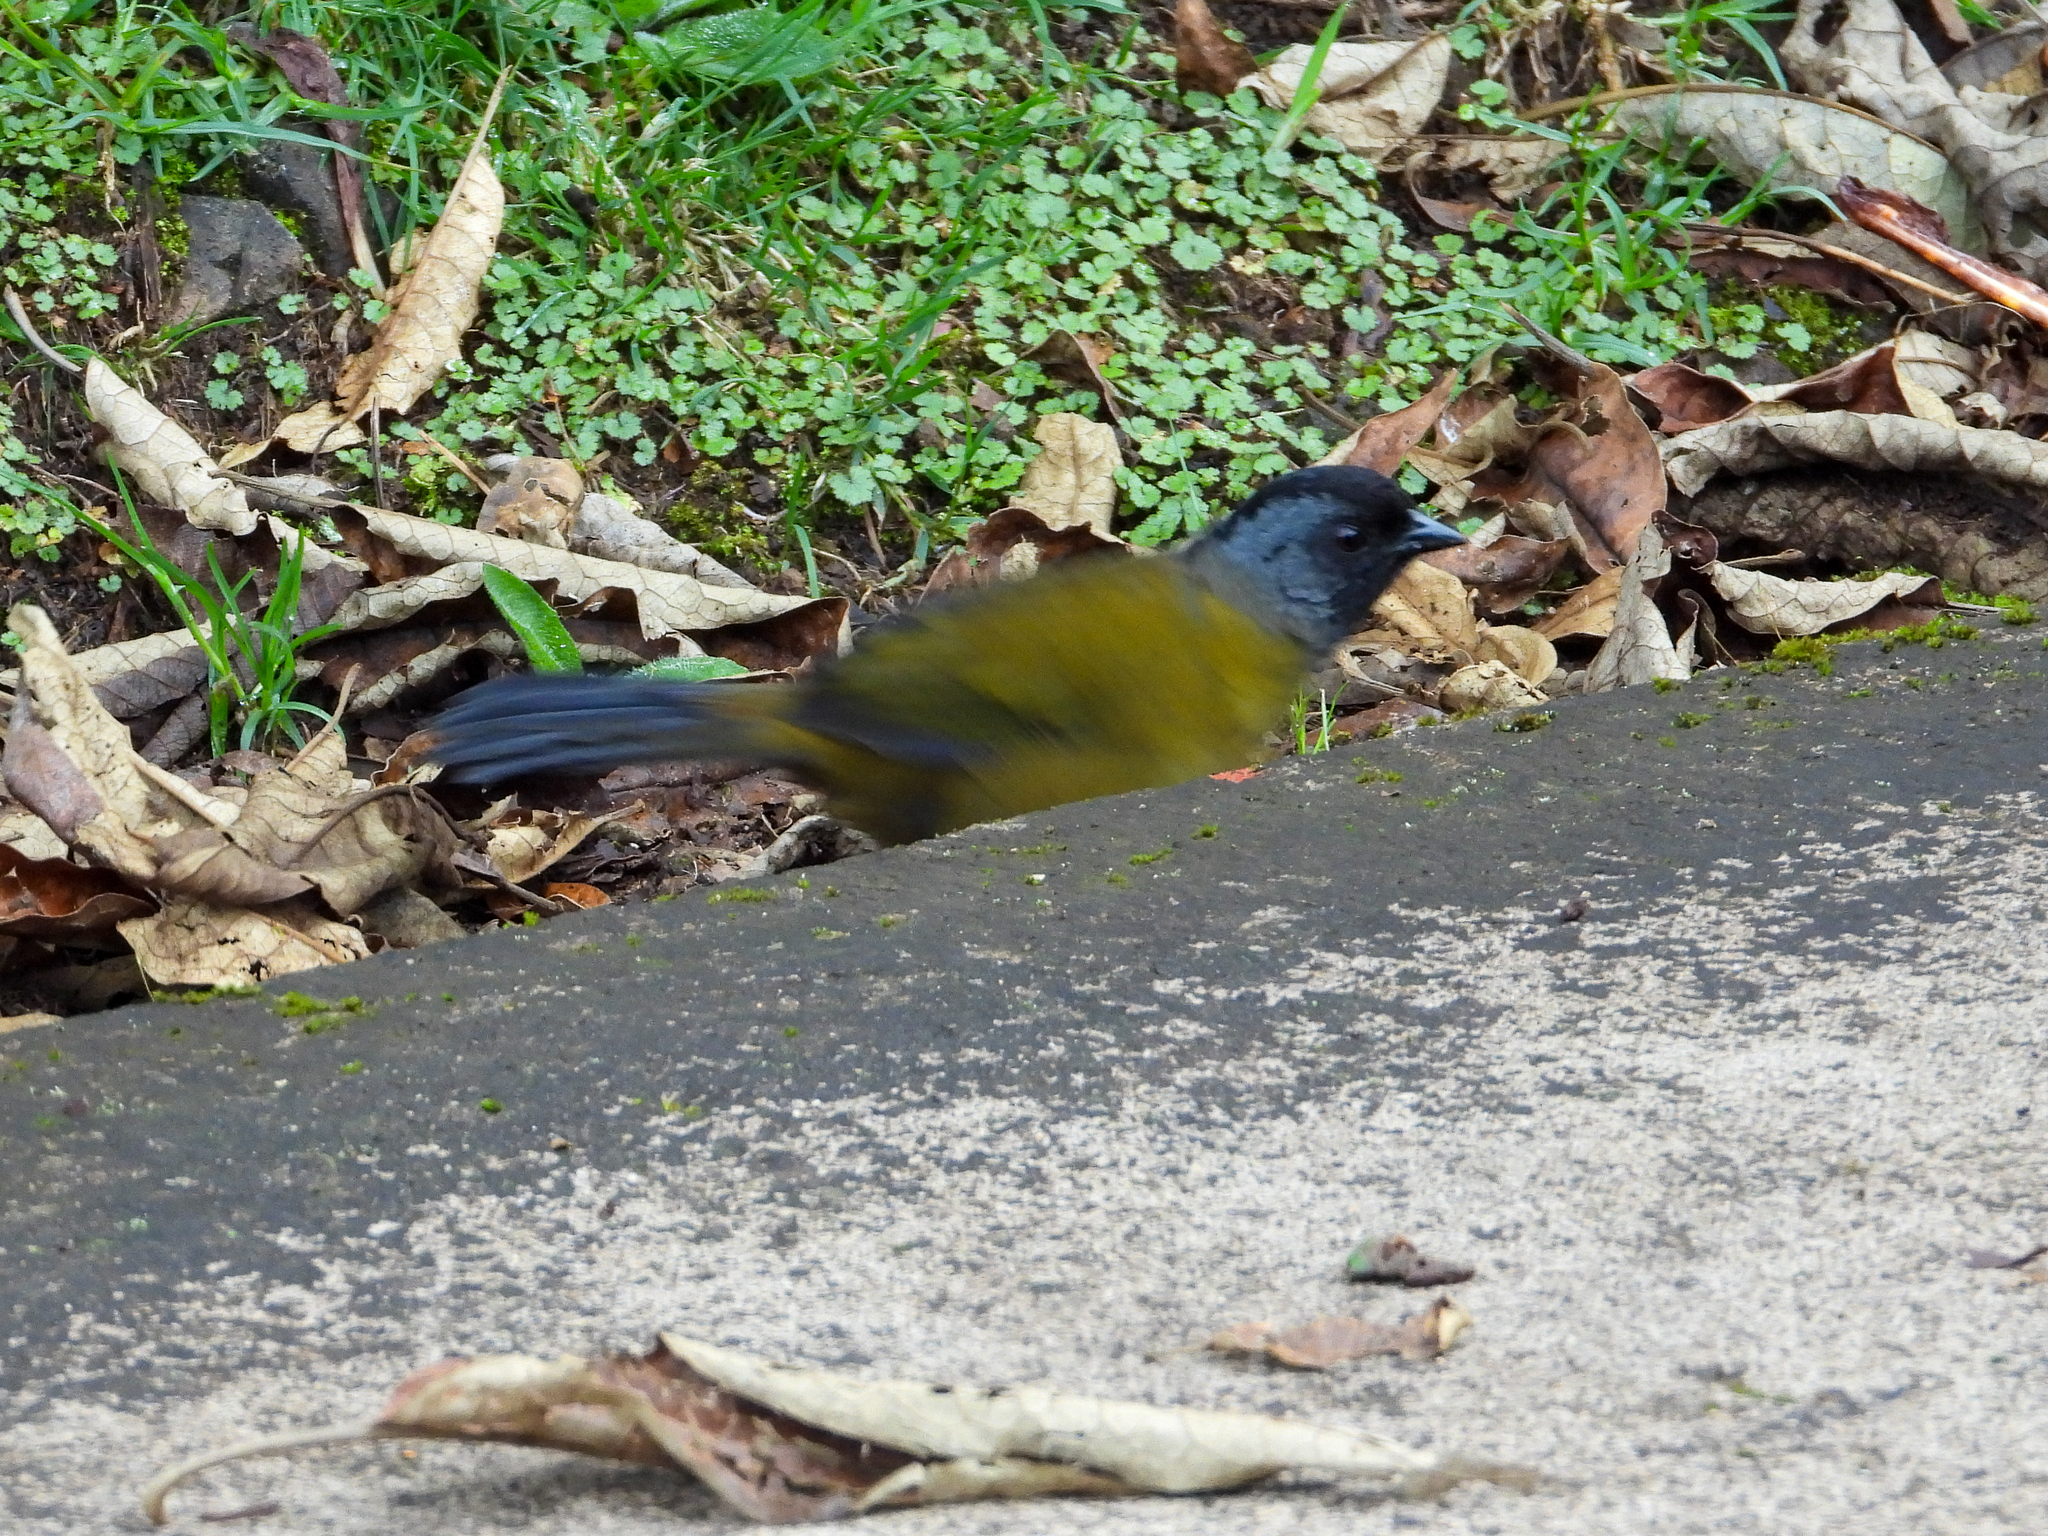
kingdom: Animalia
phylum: Chordata
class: Aves
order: Passeriformes
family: Passerellidae
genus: Pezopetes
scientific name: Pezopetes capitalis
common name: Large-footed finch
